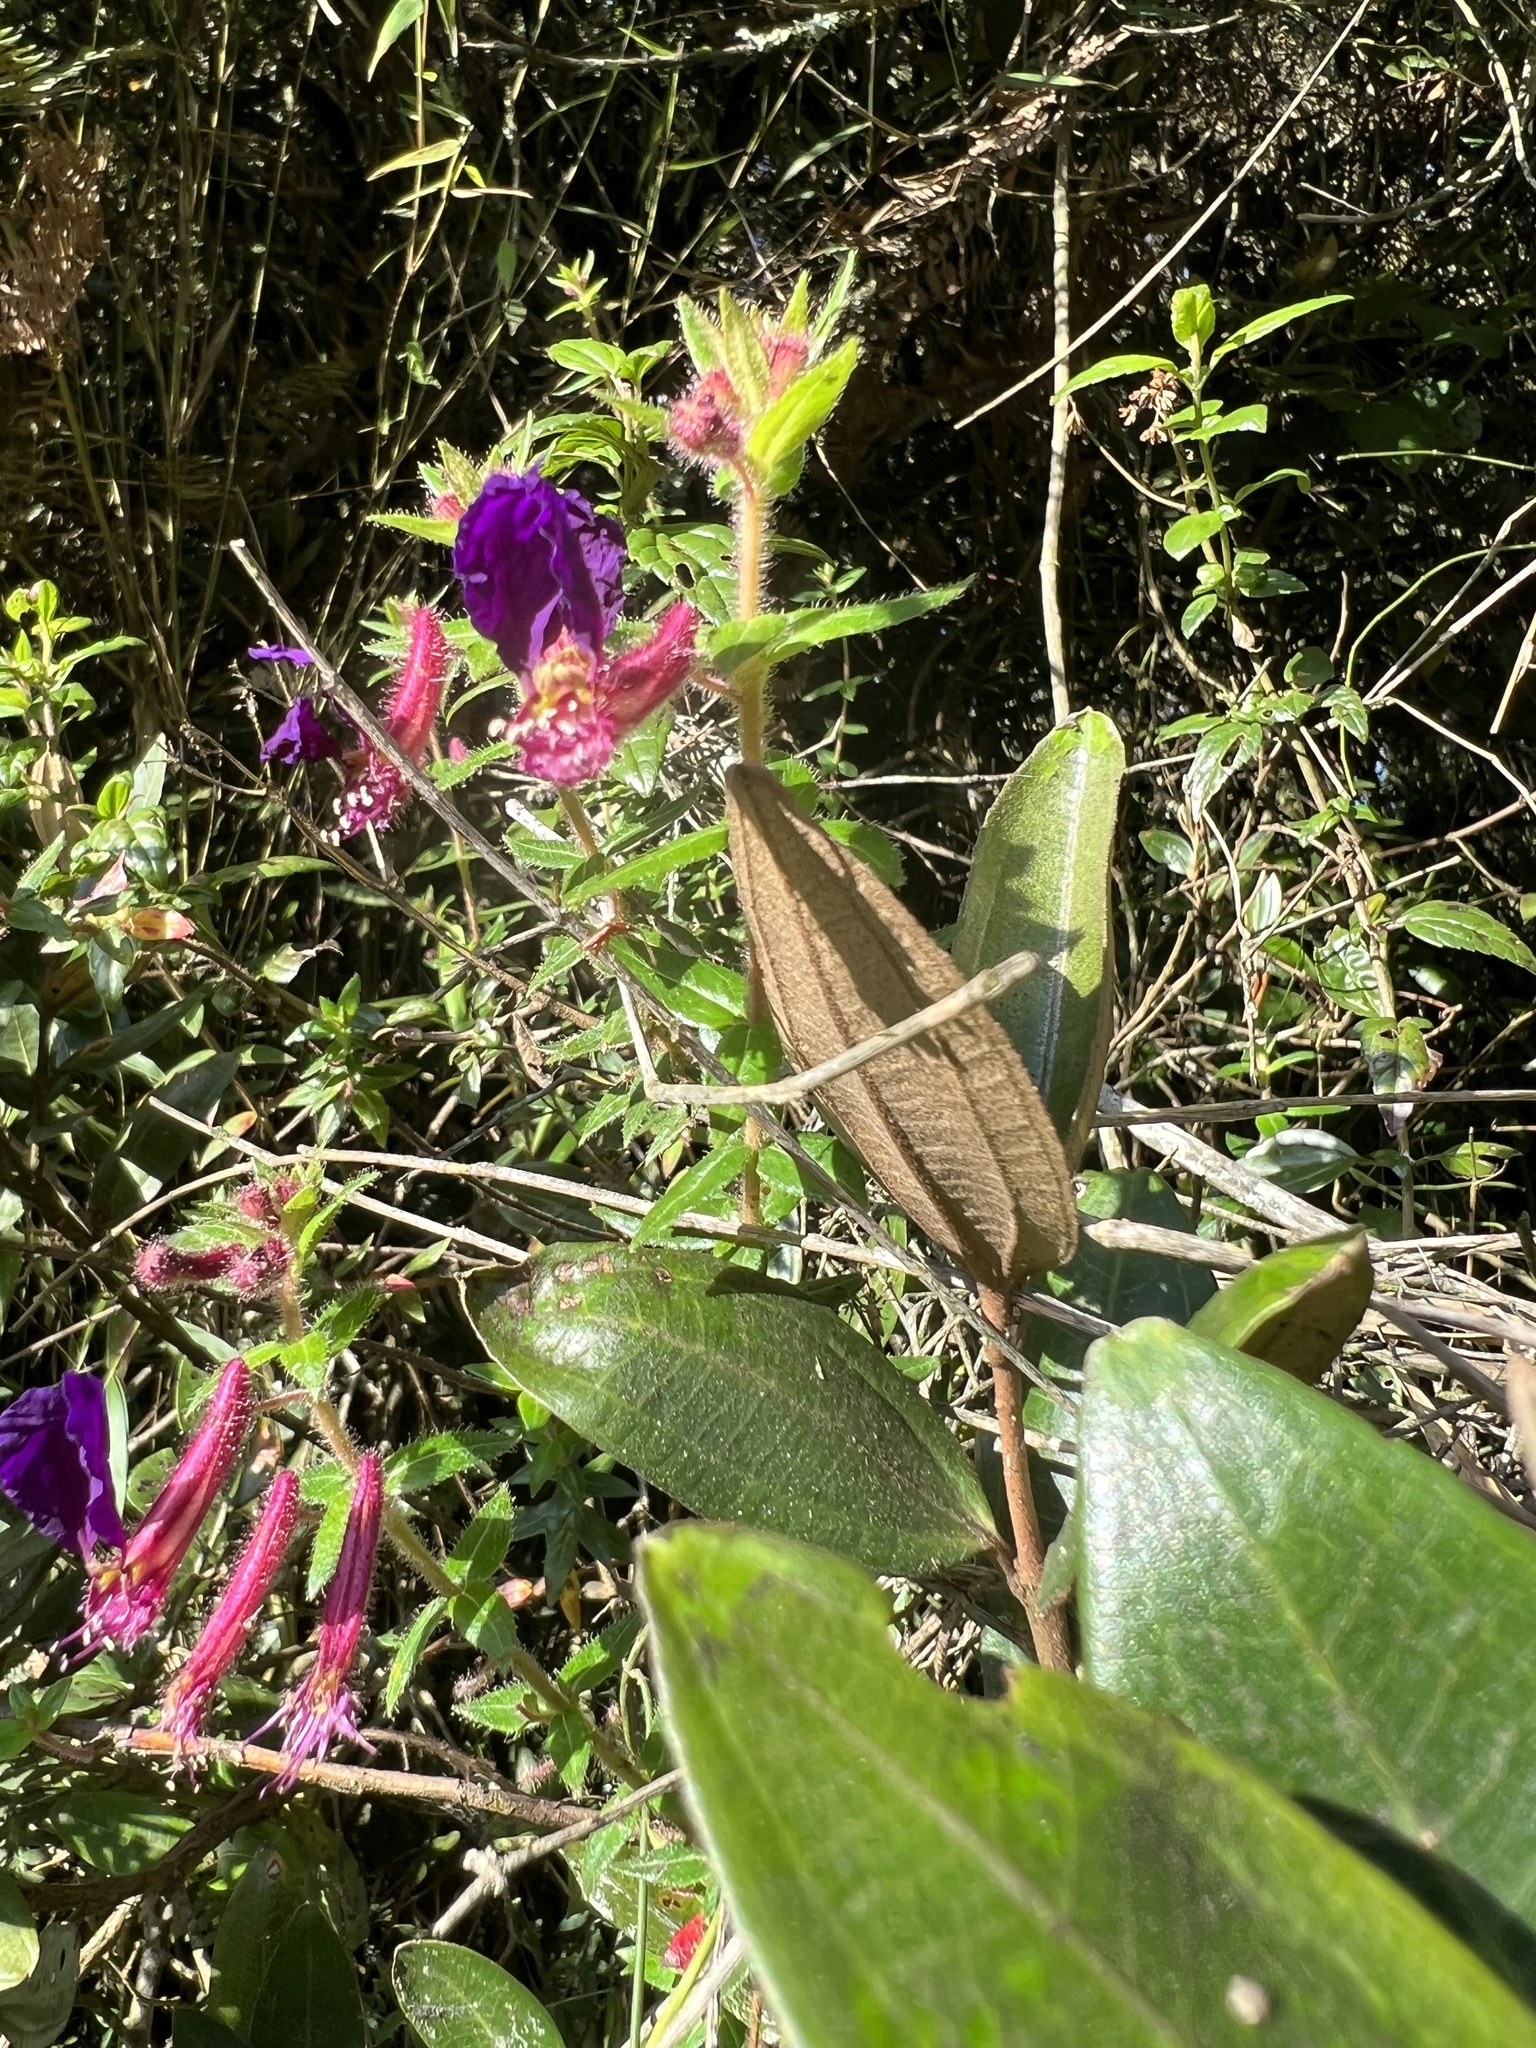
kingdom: Plantae
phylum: Tracheophyta
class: Magnoliopsida
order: Myrtales
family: Lythraceae
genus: Cuphea
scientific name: Cuphea dipetala
